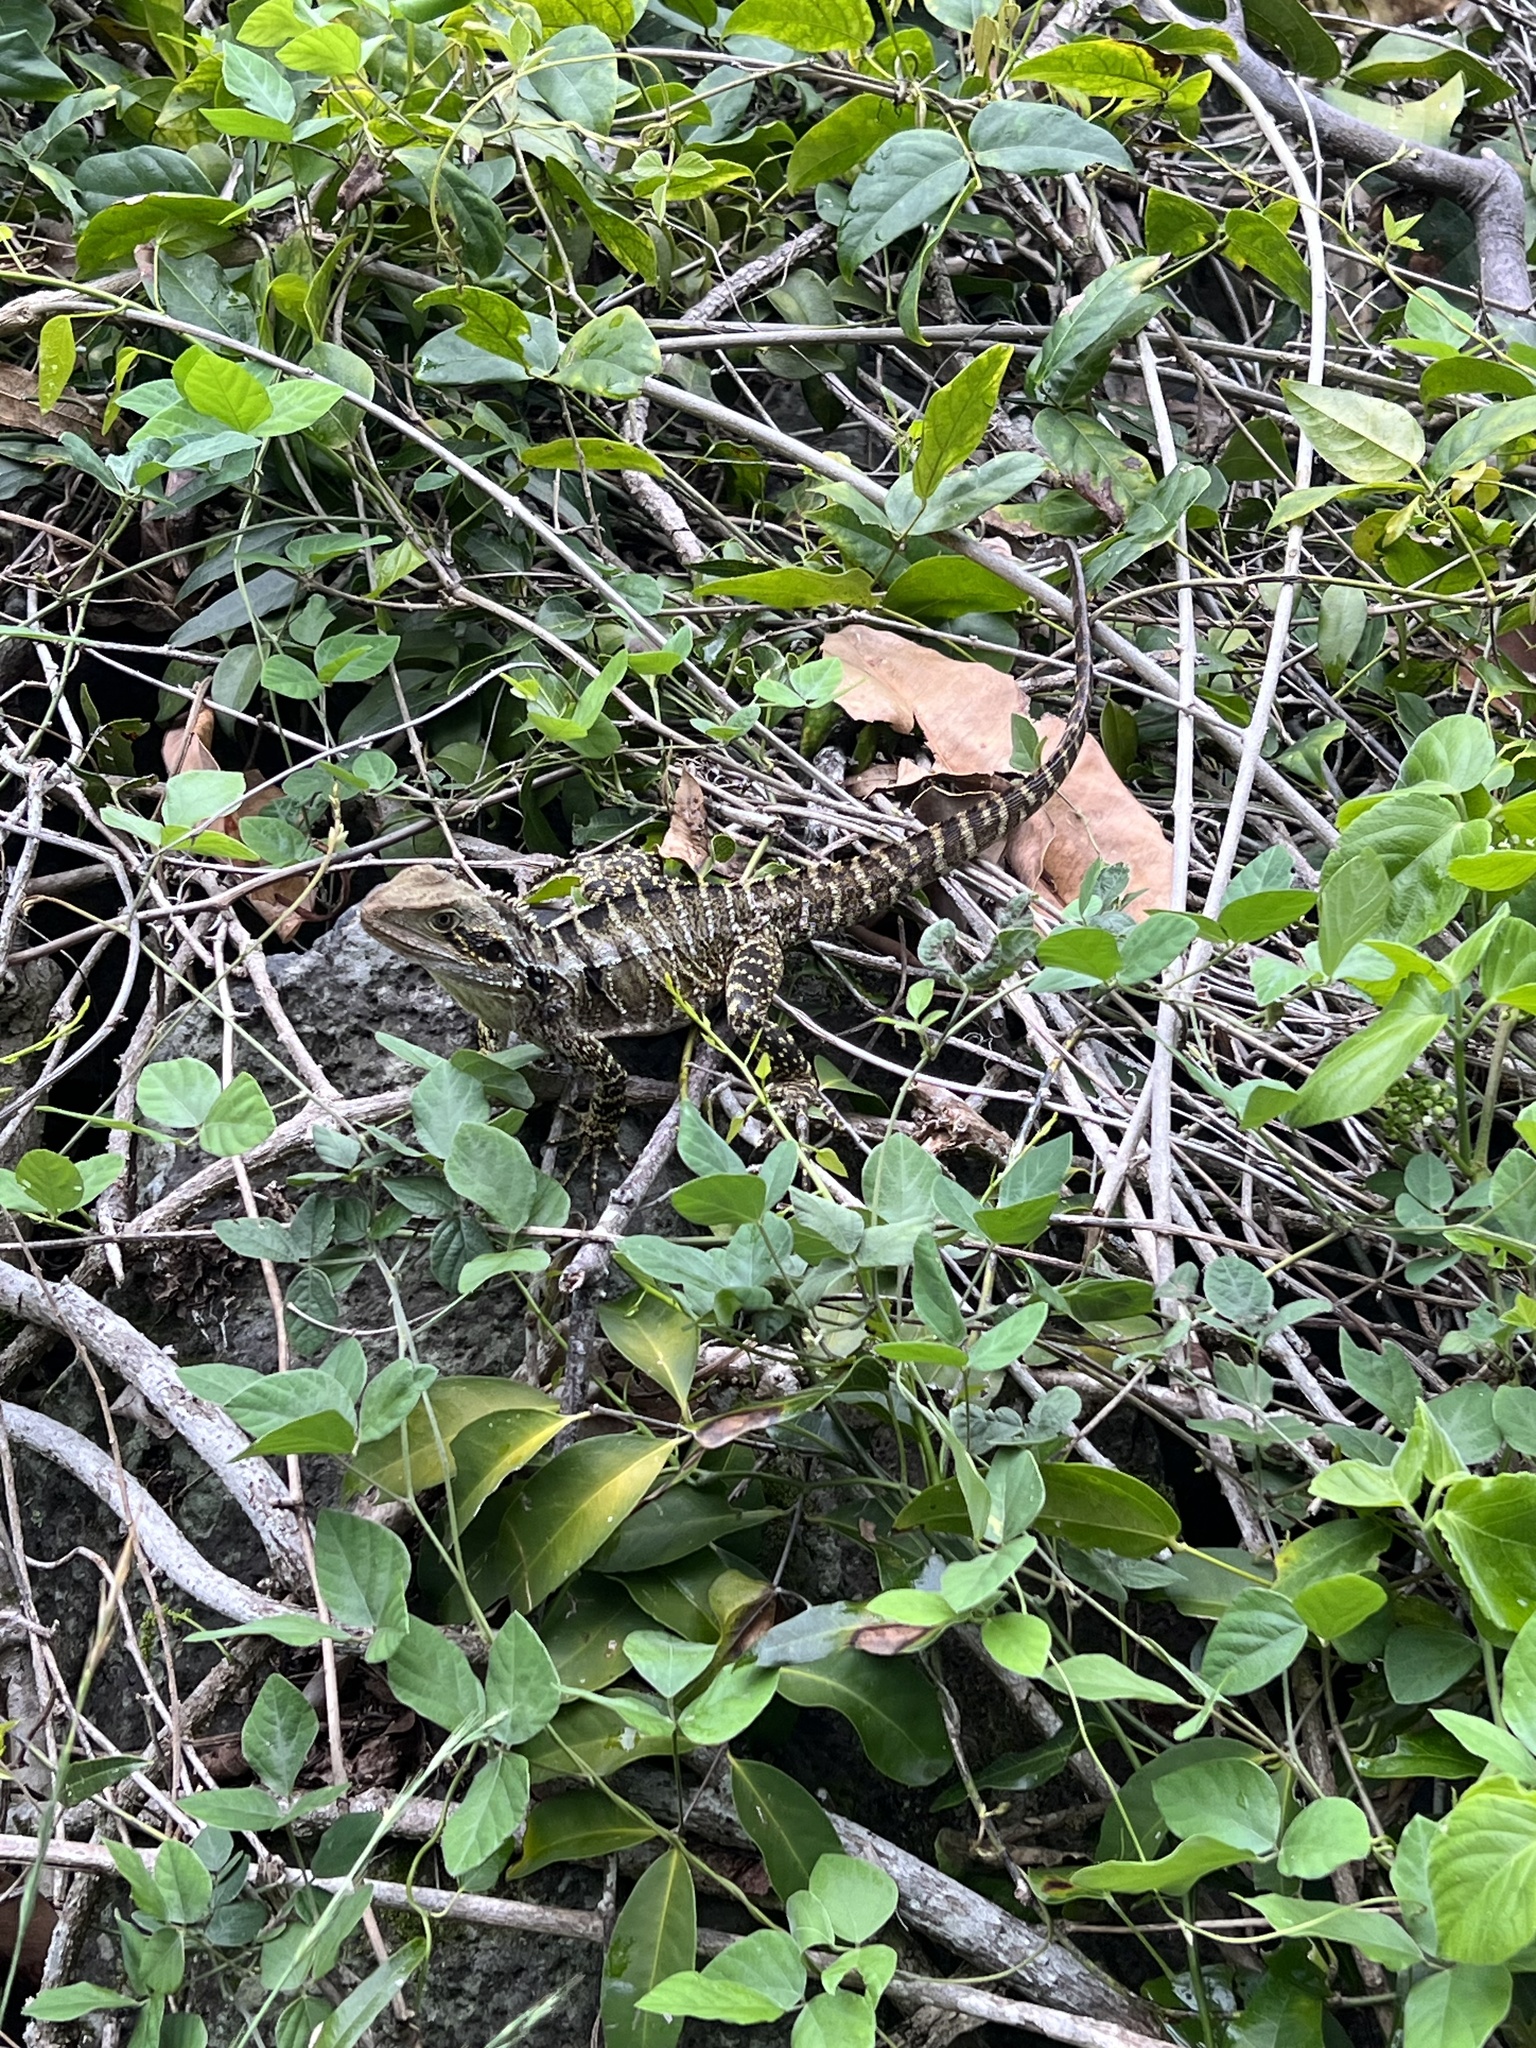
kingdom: Animalia
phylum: Chordata
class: Squamata
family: Agamidae
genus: Intellagama
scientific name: Intellagama lesueurii
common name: Eastern water dragon
